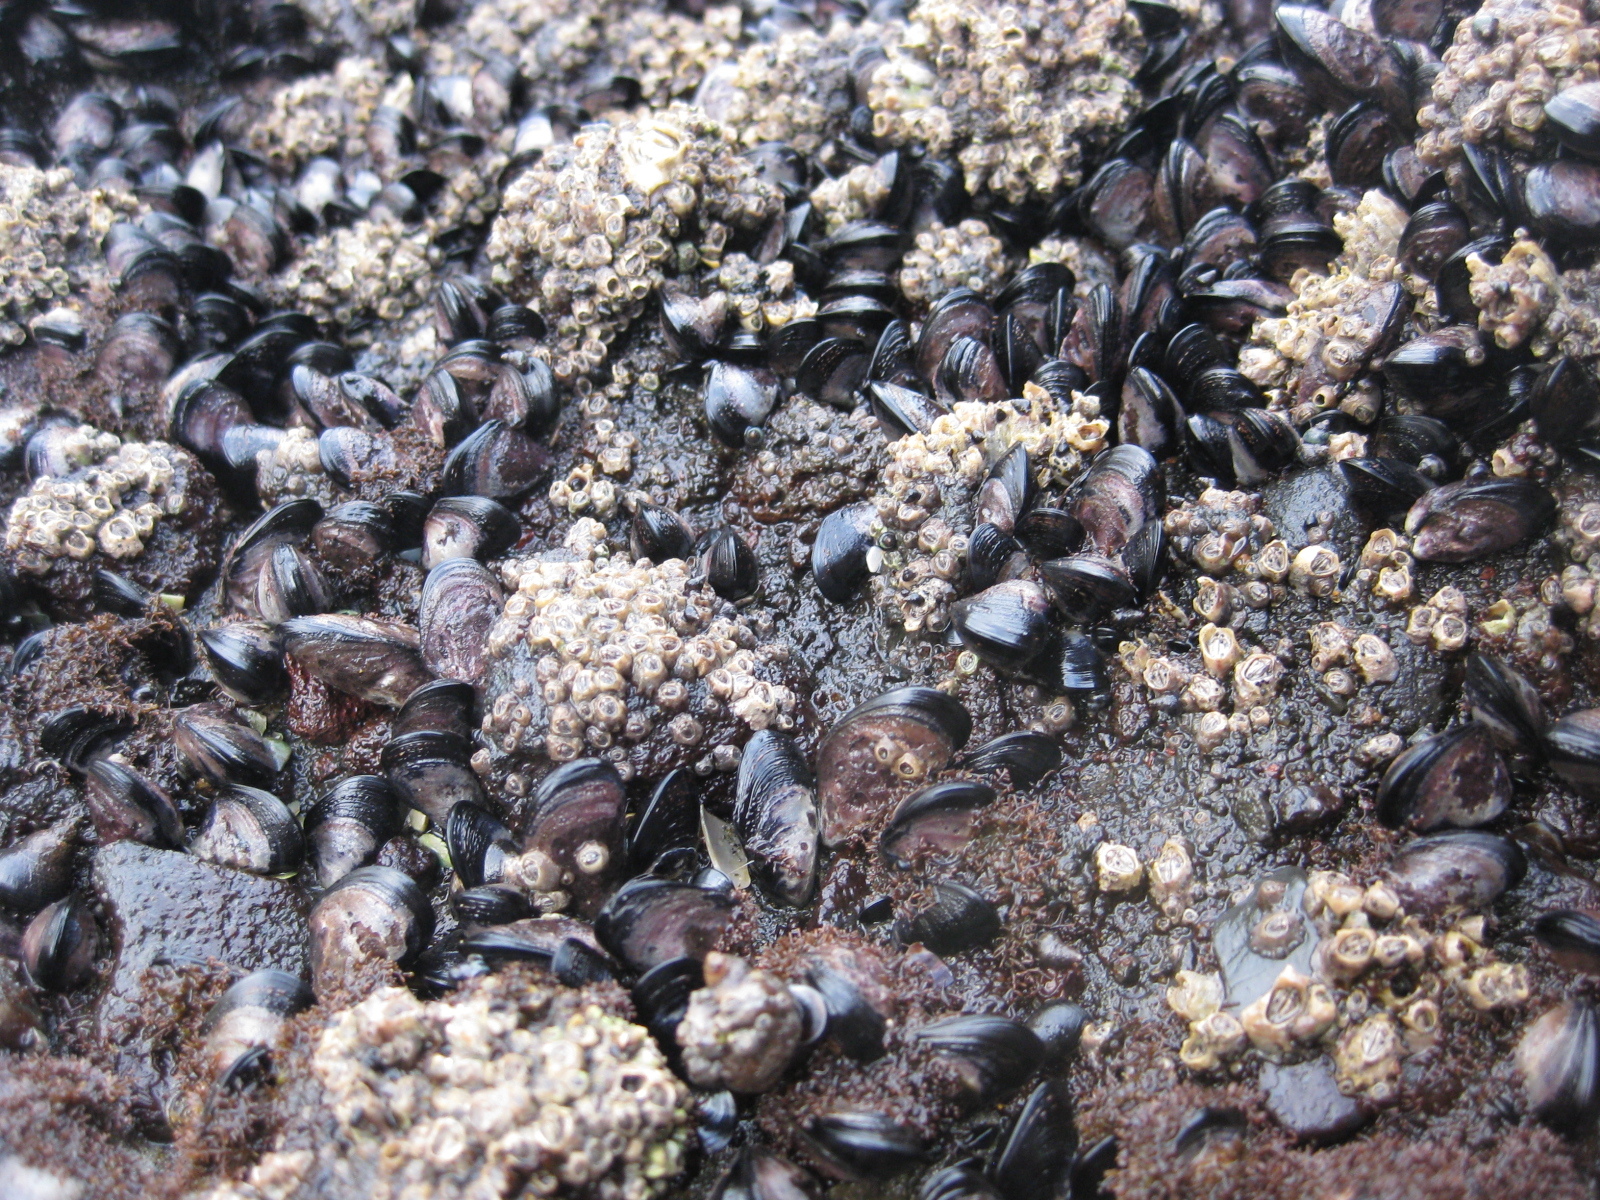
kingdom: Animalia
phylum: Mollusca
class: Bivalvia
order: Mytilida
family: Mytilidae
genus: Xenostrobus
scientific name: Xenostrobus neozelanicus
